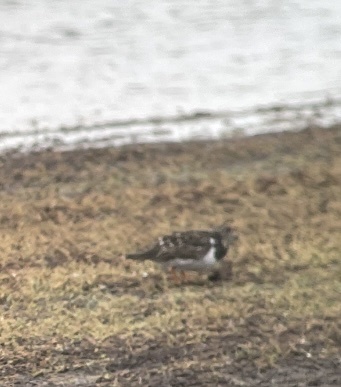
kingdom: Animalia
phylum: Chordata
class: Aves
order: Charadriiformes
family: Scolopacidae
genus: Arenaria
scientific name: Arenaria interpres
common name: Ruddy turnstone
